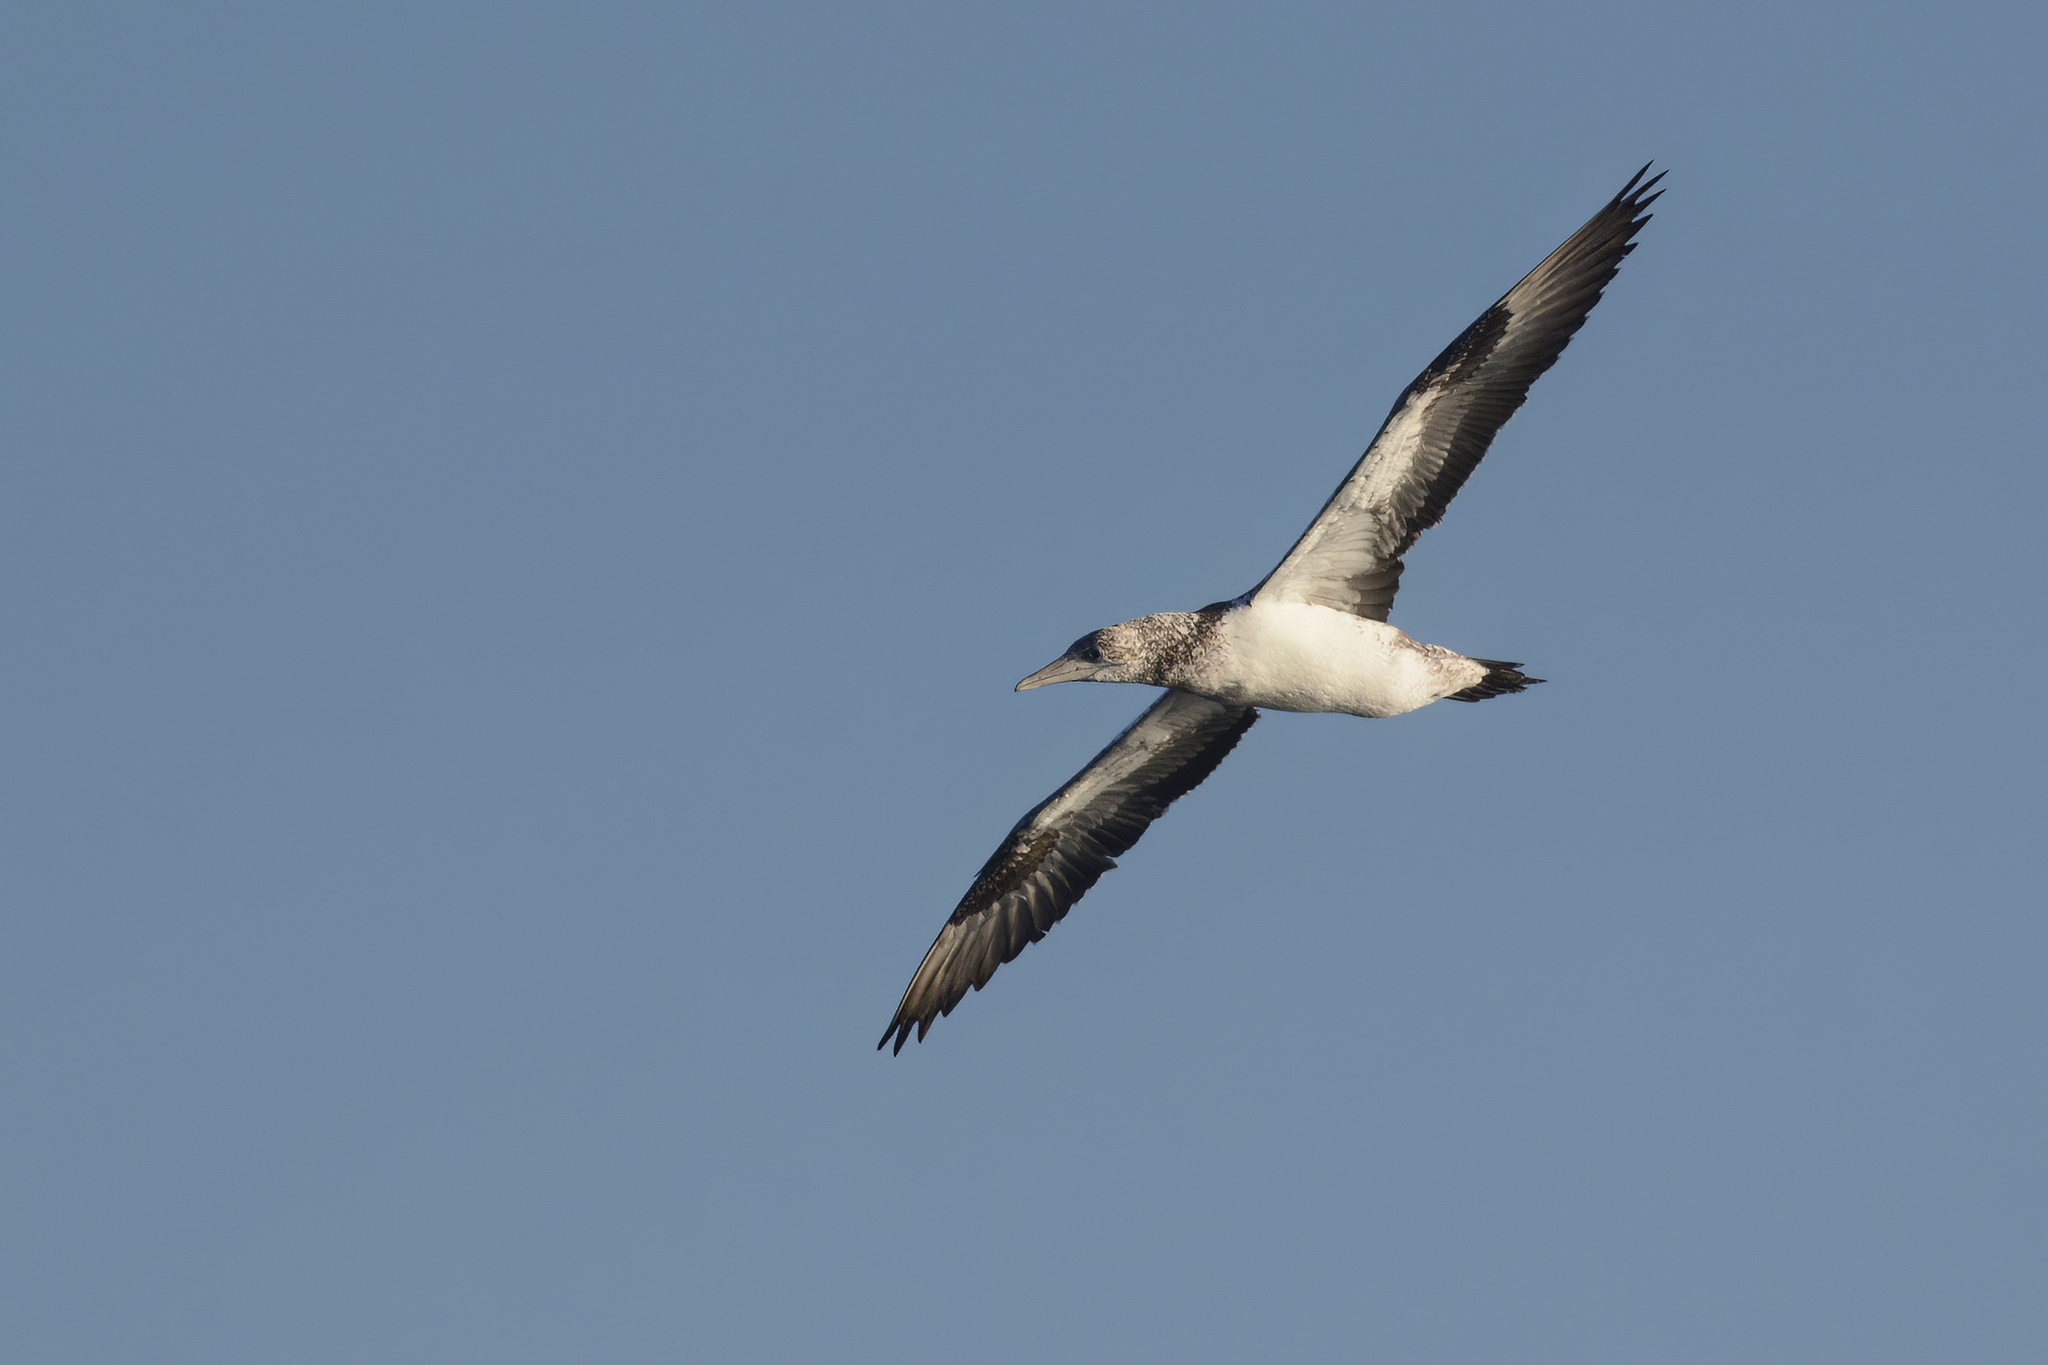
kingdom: Animalia
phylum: Chordata
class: Aves
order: Suliformes
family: Sulidae
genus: Morus
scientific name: Morus serrator
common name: Australasian gannet
